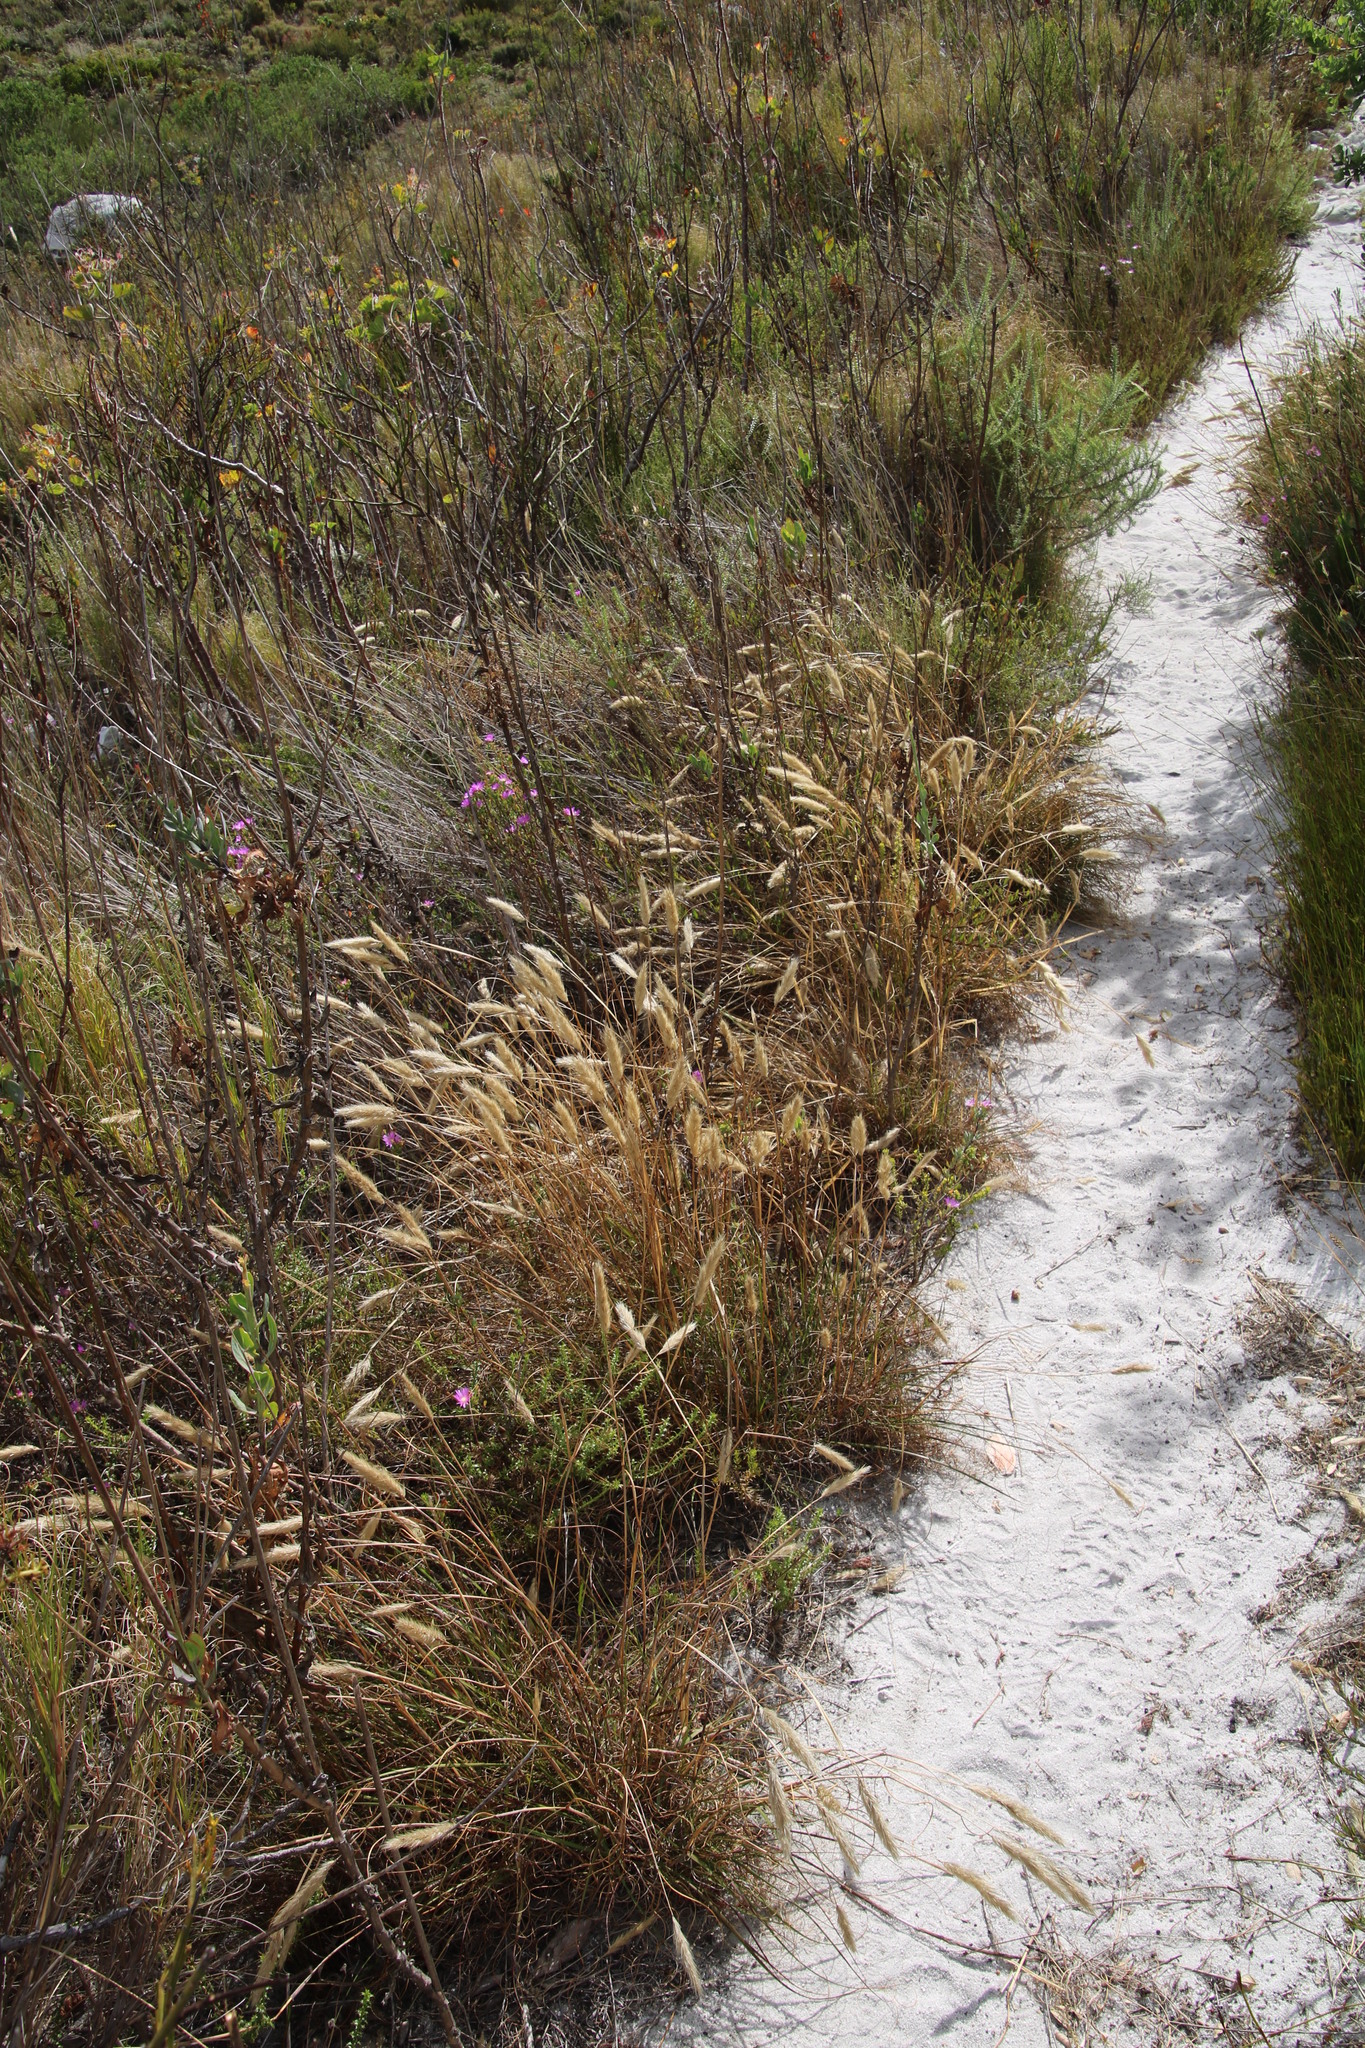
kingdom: Plantae
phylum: Tracheophyta
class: Liliopsida
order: Poales
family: Poaceae
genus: Pentameris
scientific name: Pentameris curvifolia
